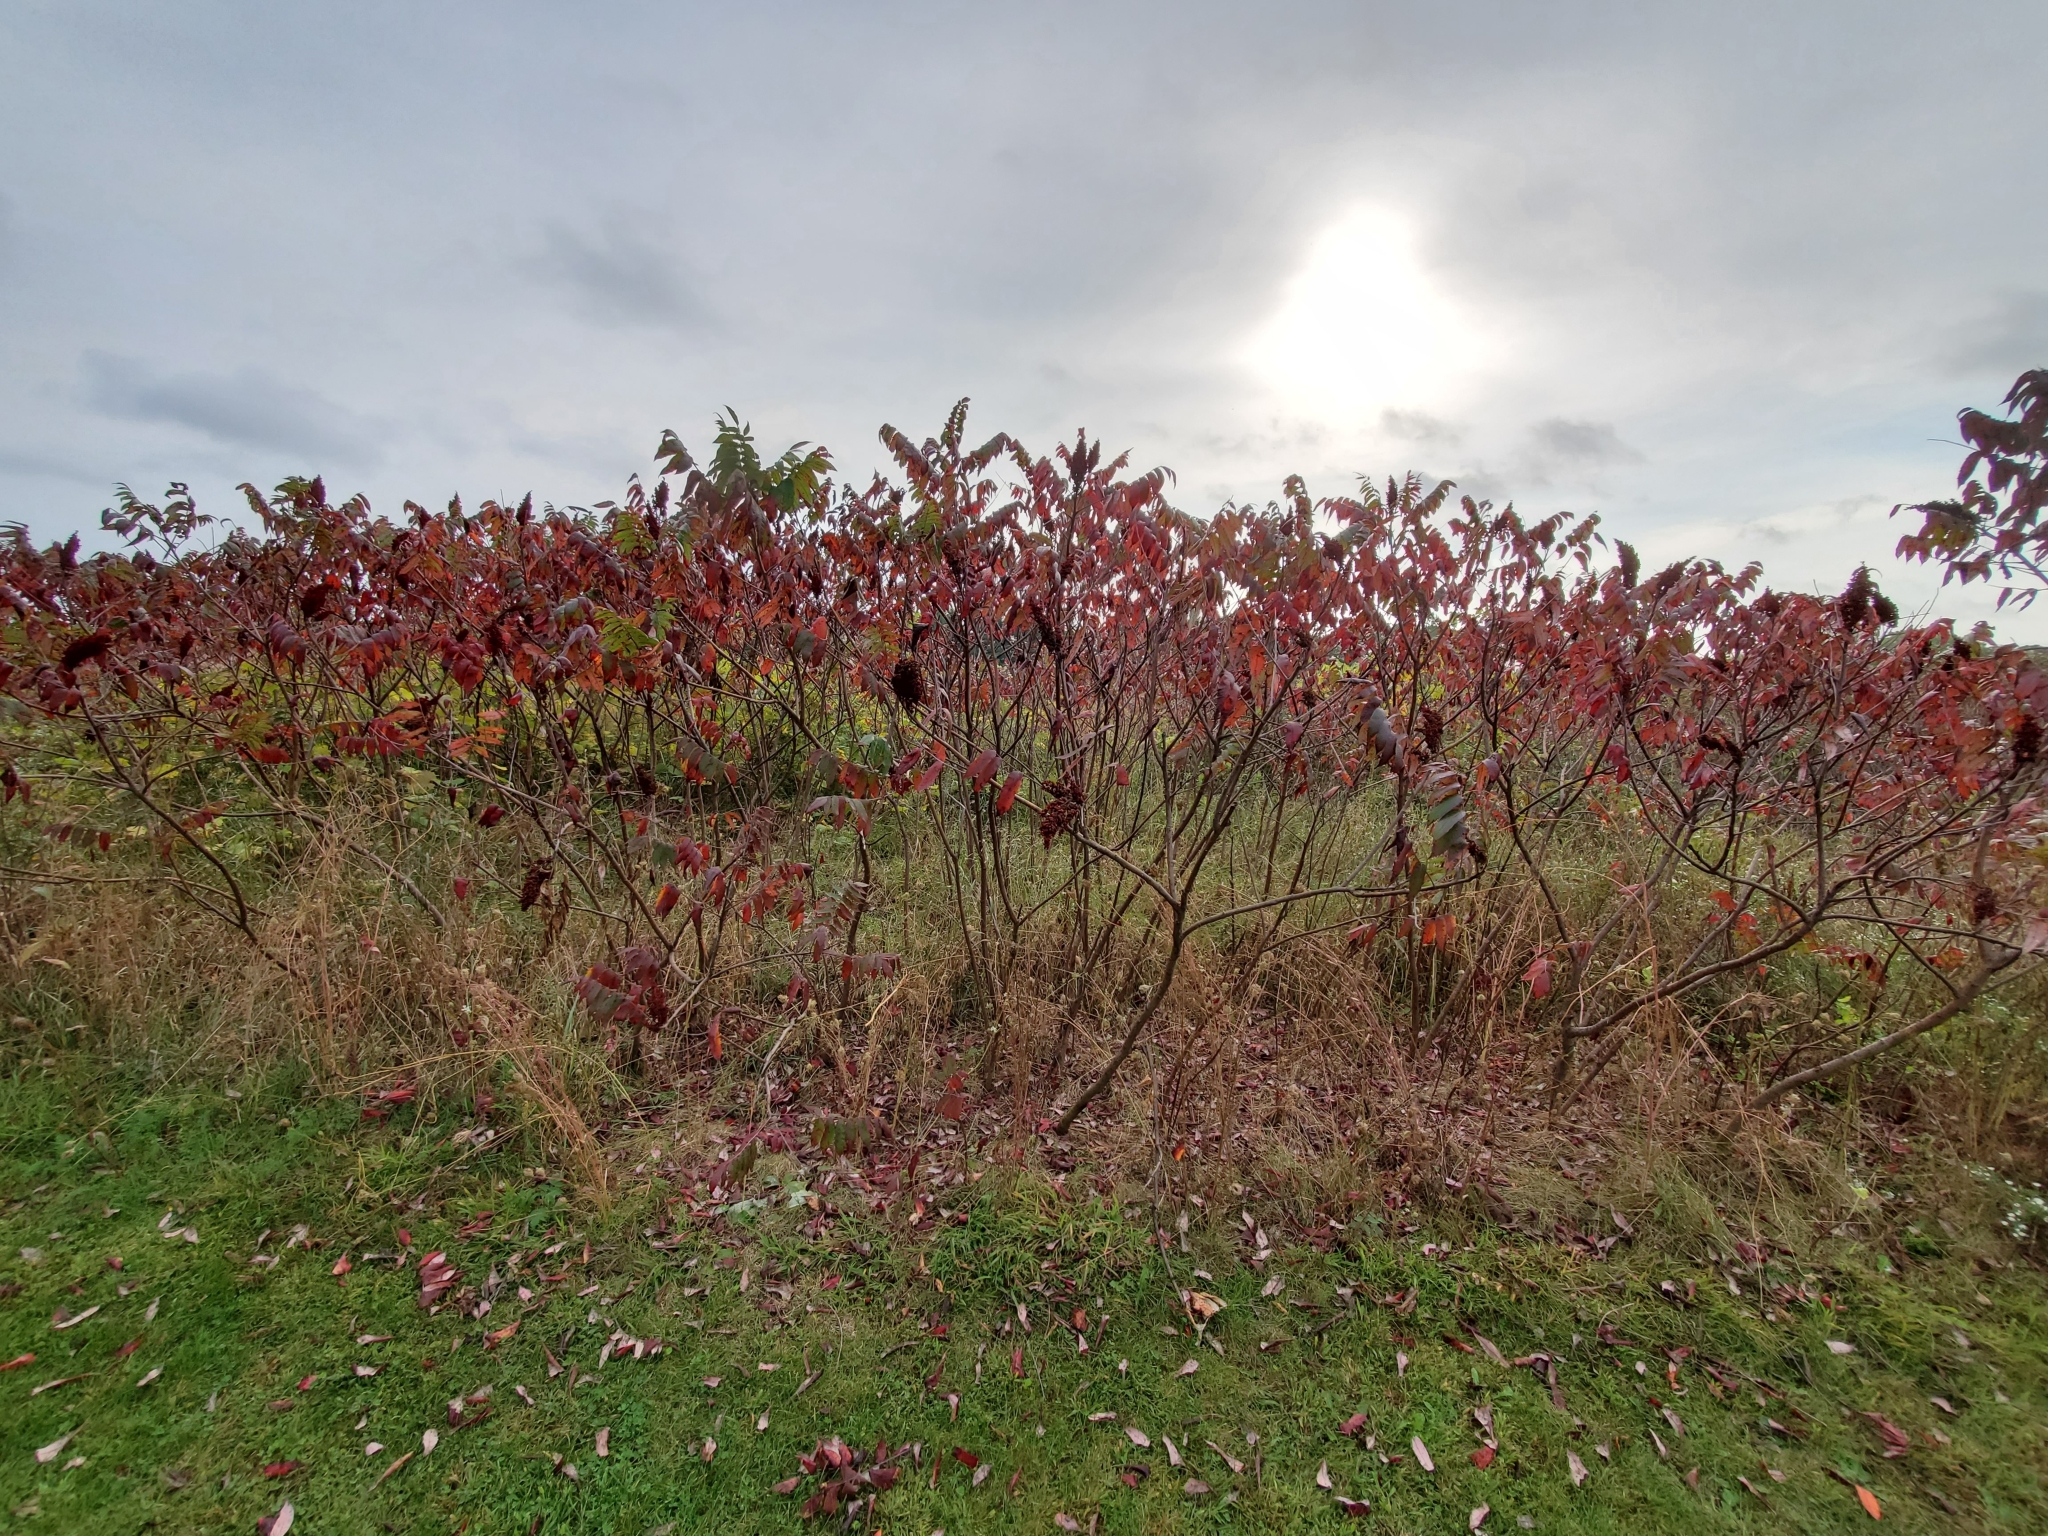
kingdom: Plantae
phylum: Tracheophyta
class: Magnoliopsida
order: Sapindales
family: Anacardiaceae
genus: Rhus
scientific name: Rhus glabra
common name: Scarlet sumac
